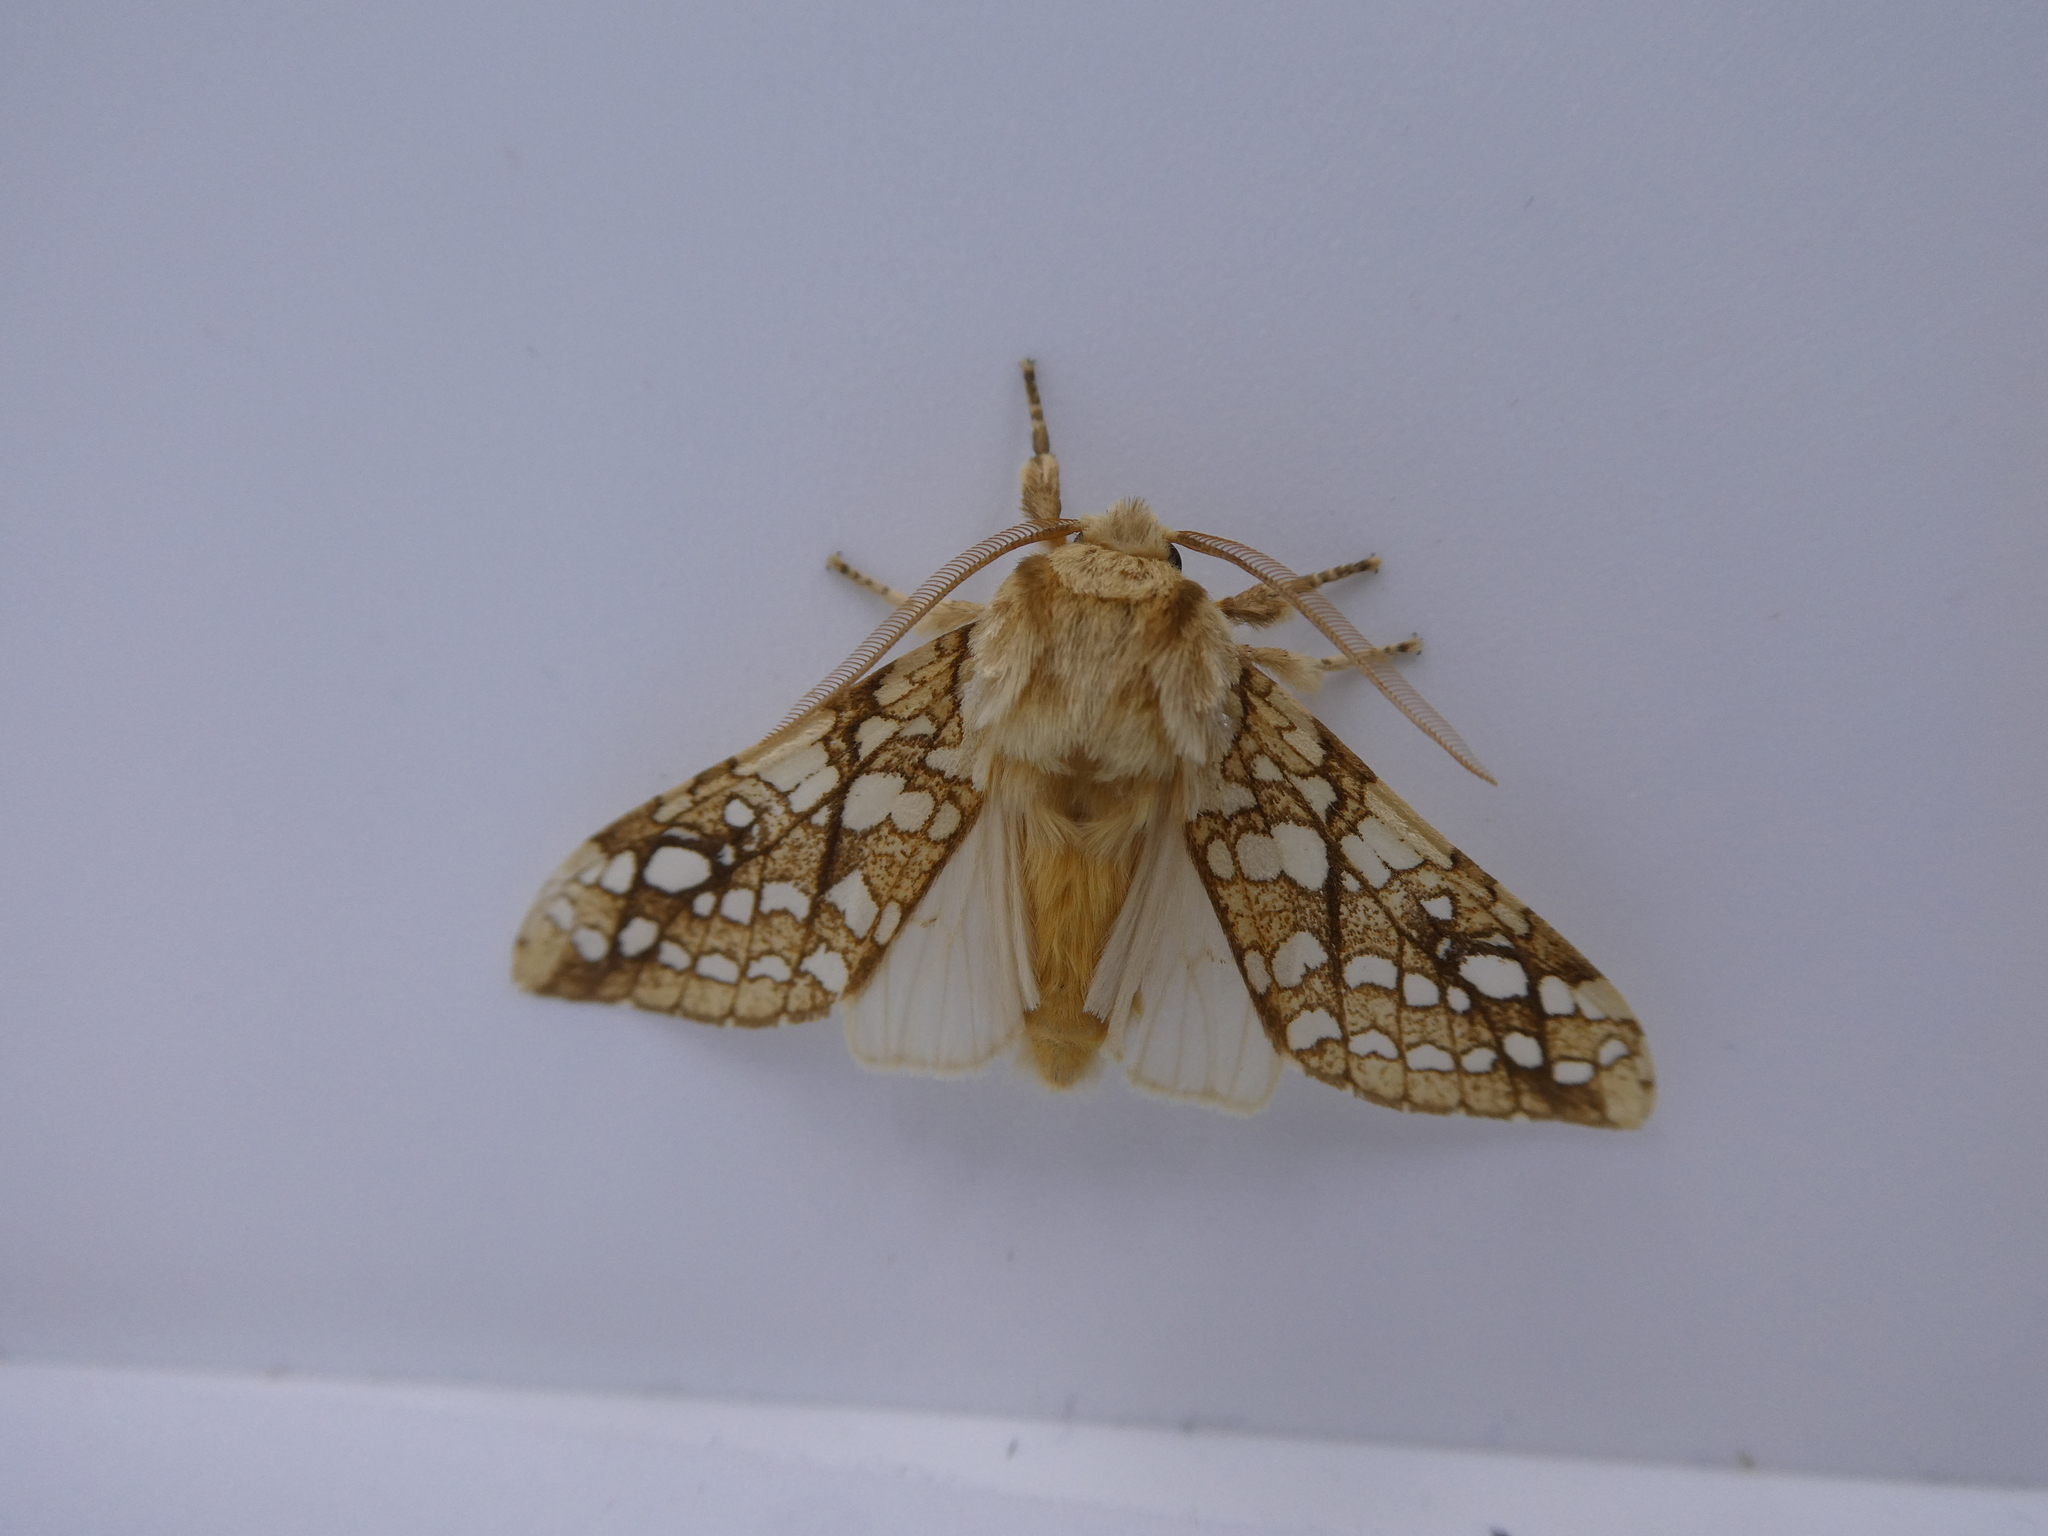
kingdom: Animalia
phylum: Arthropoda
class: Insecta
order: Lepidoptera
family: Erebidae
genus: Lophocampa
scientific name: Lophocampa caryae
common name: Hickory tussock moth
